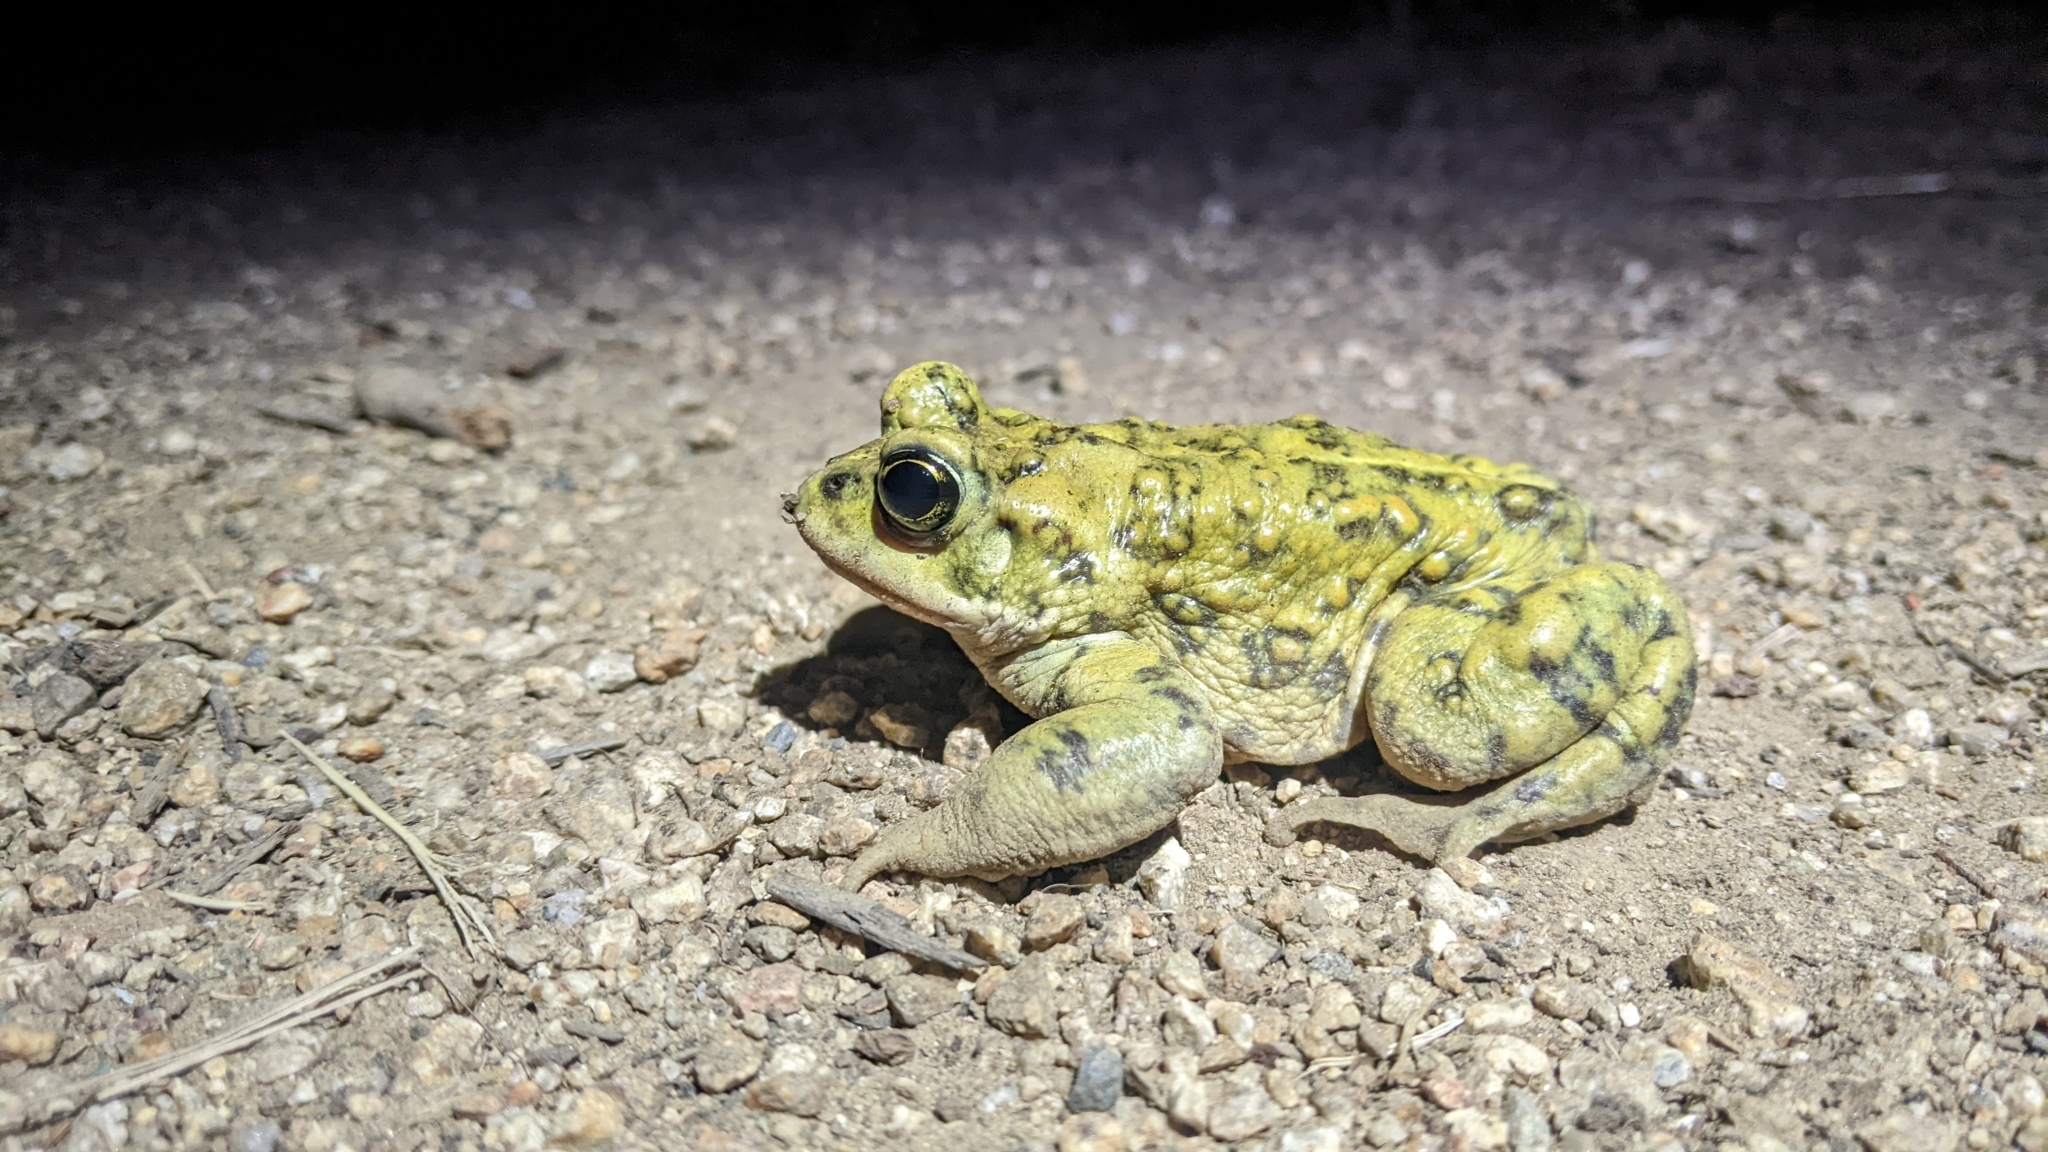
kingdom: Animalia
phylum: Chordata
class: Amphibia
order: Anura
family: Bufonidae
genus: Anaxyrus
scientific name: Anaxyrus boreas
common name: Western toad
